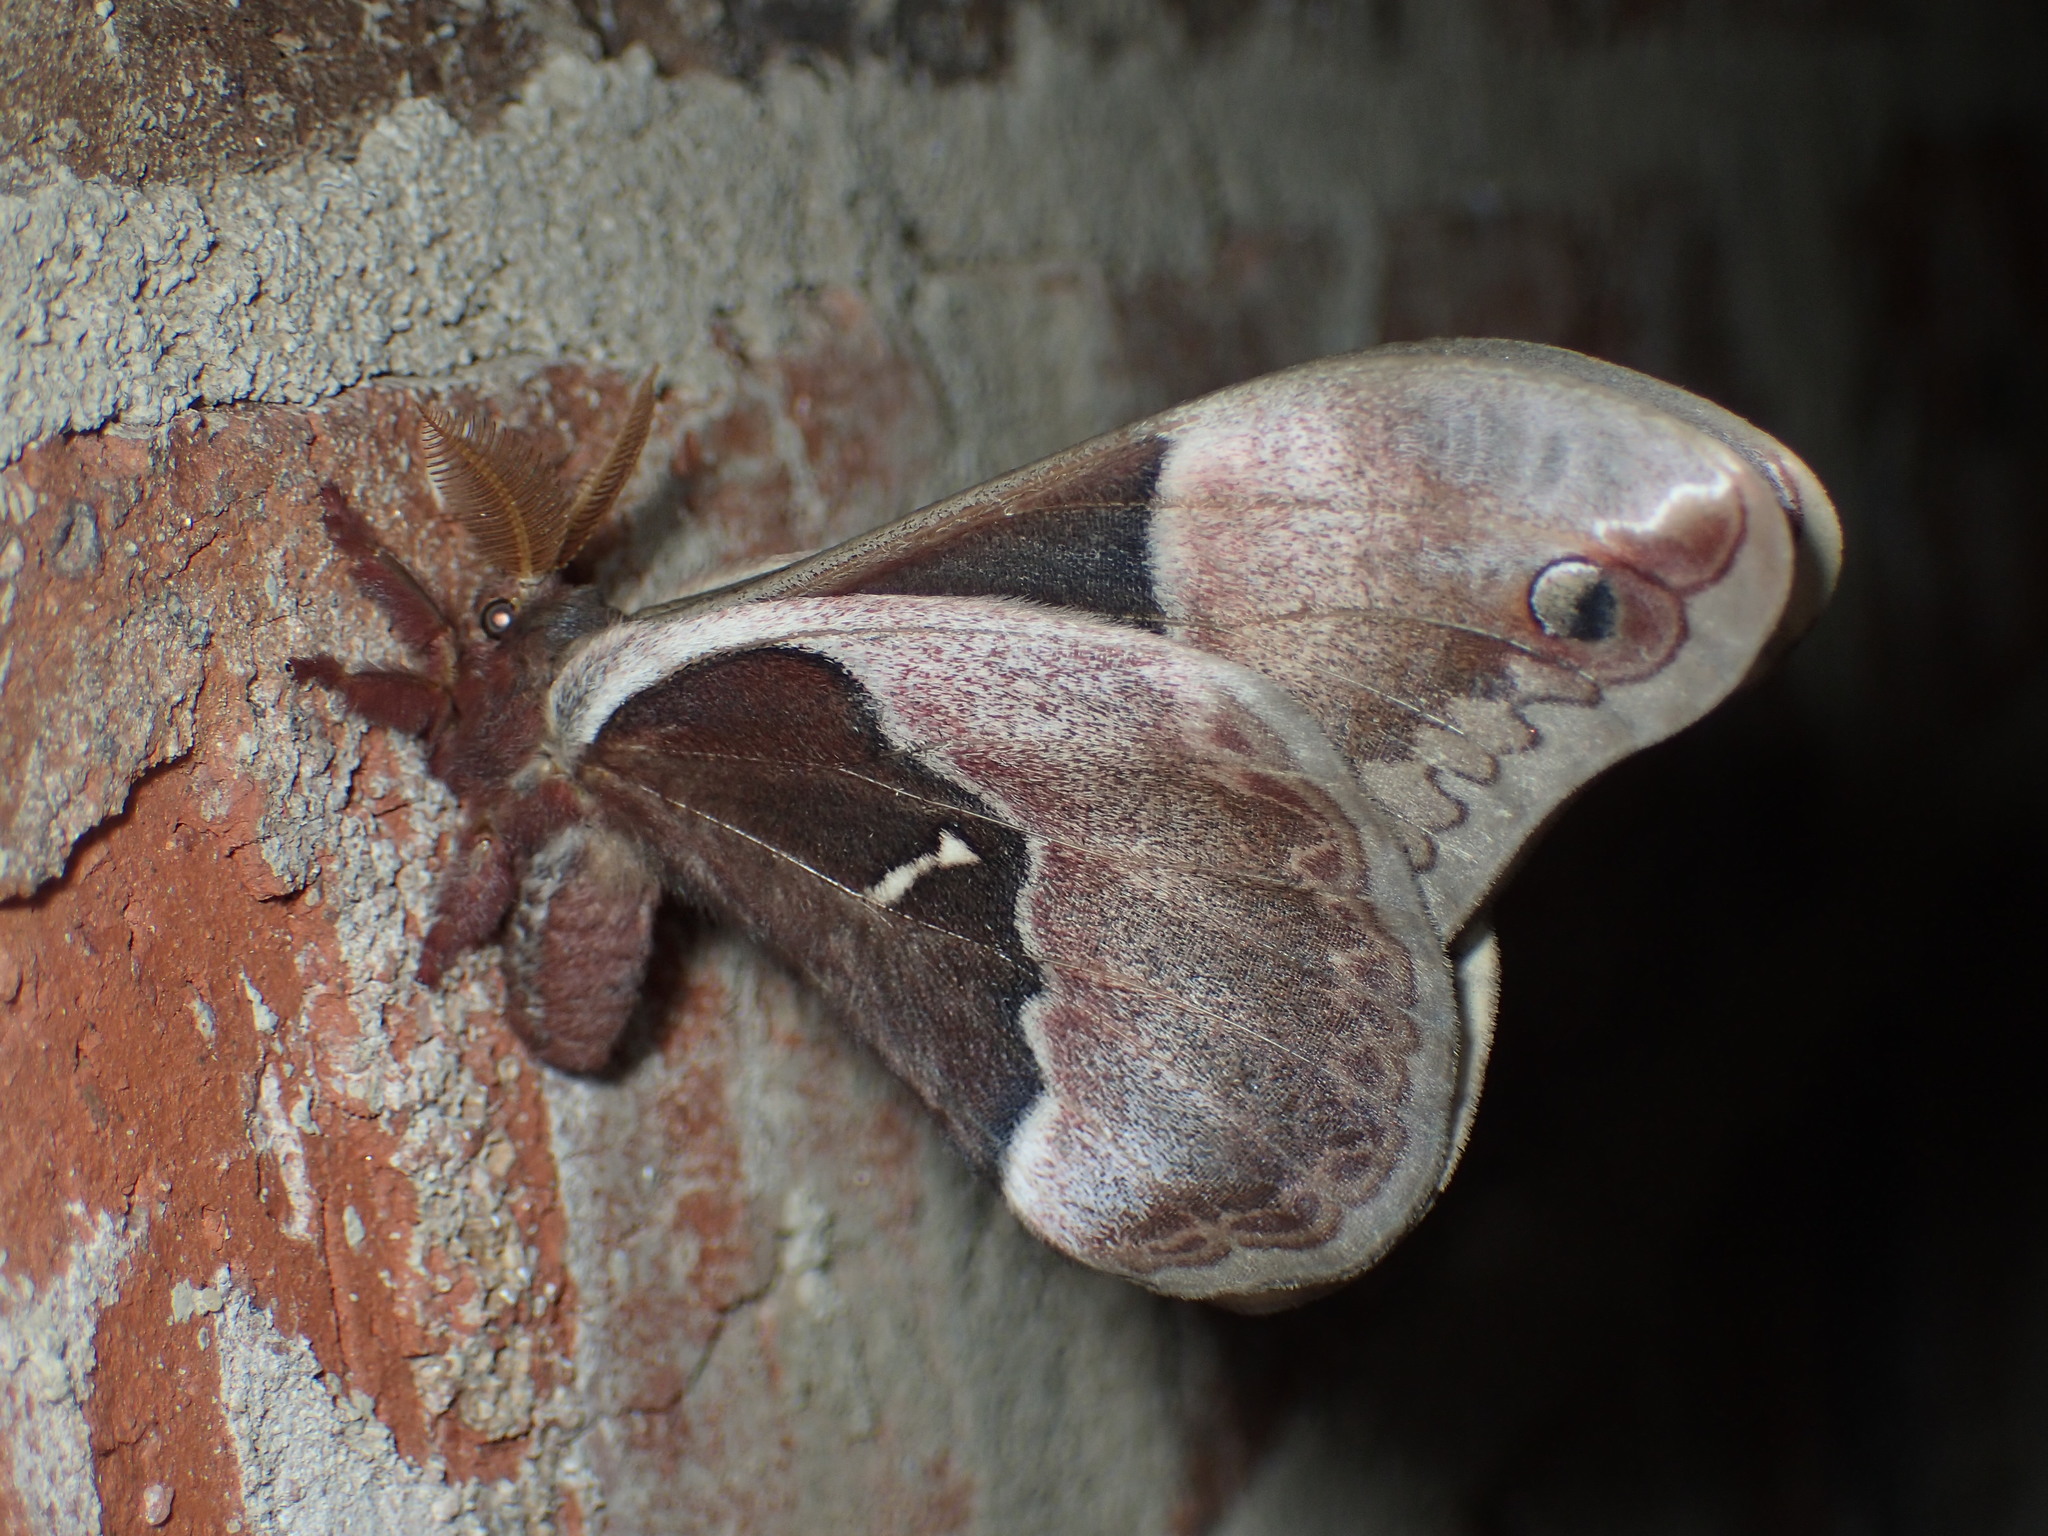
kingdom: Animalia
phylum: Arthropoda
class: Insecta
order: Lepidoptera
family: Saturniidae
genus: Callosamia
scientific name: Callosamia angulifera
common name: Tulip tree silkmoth
